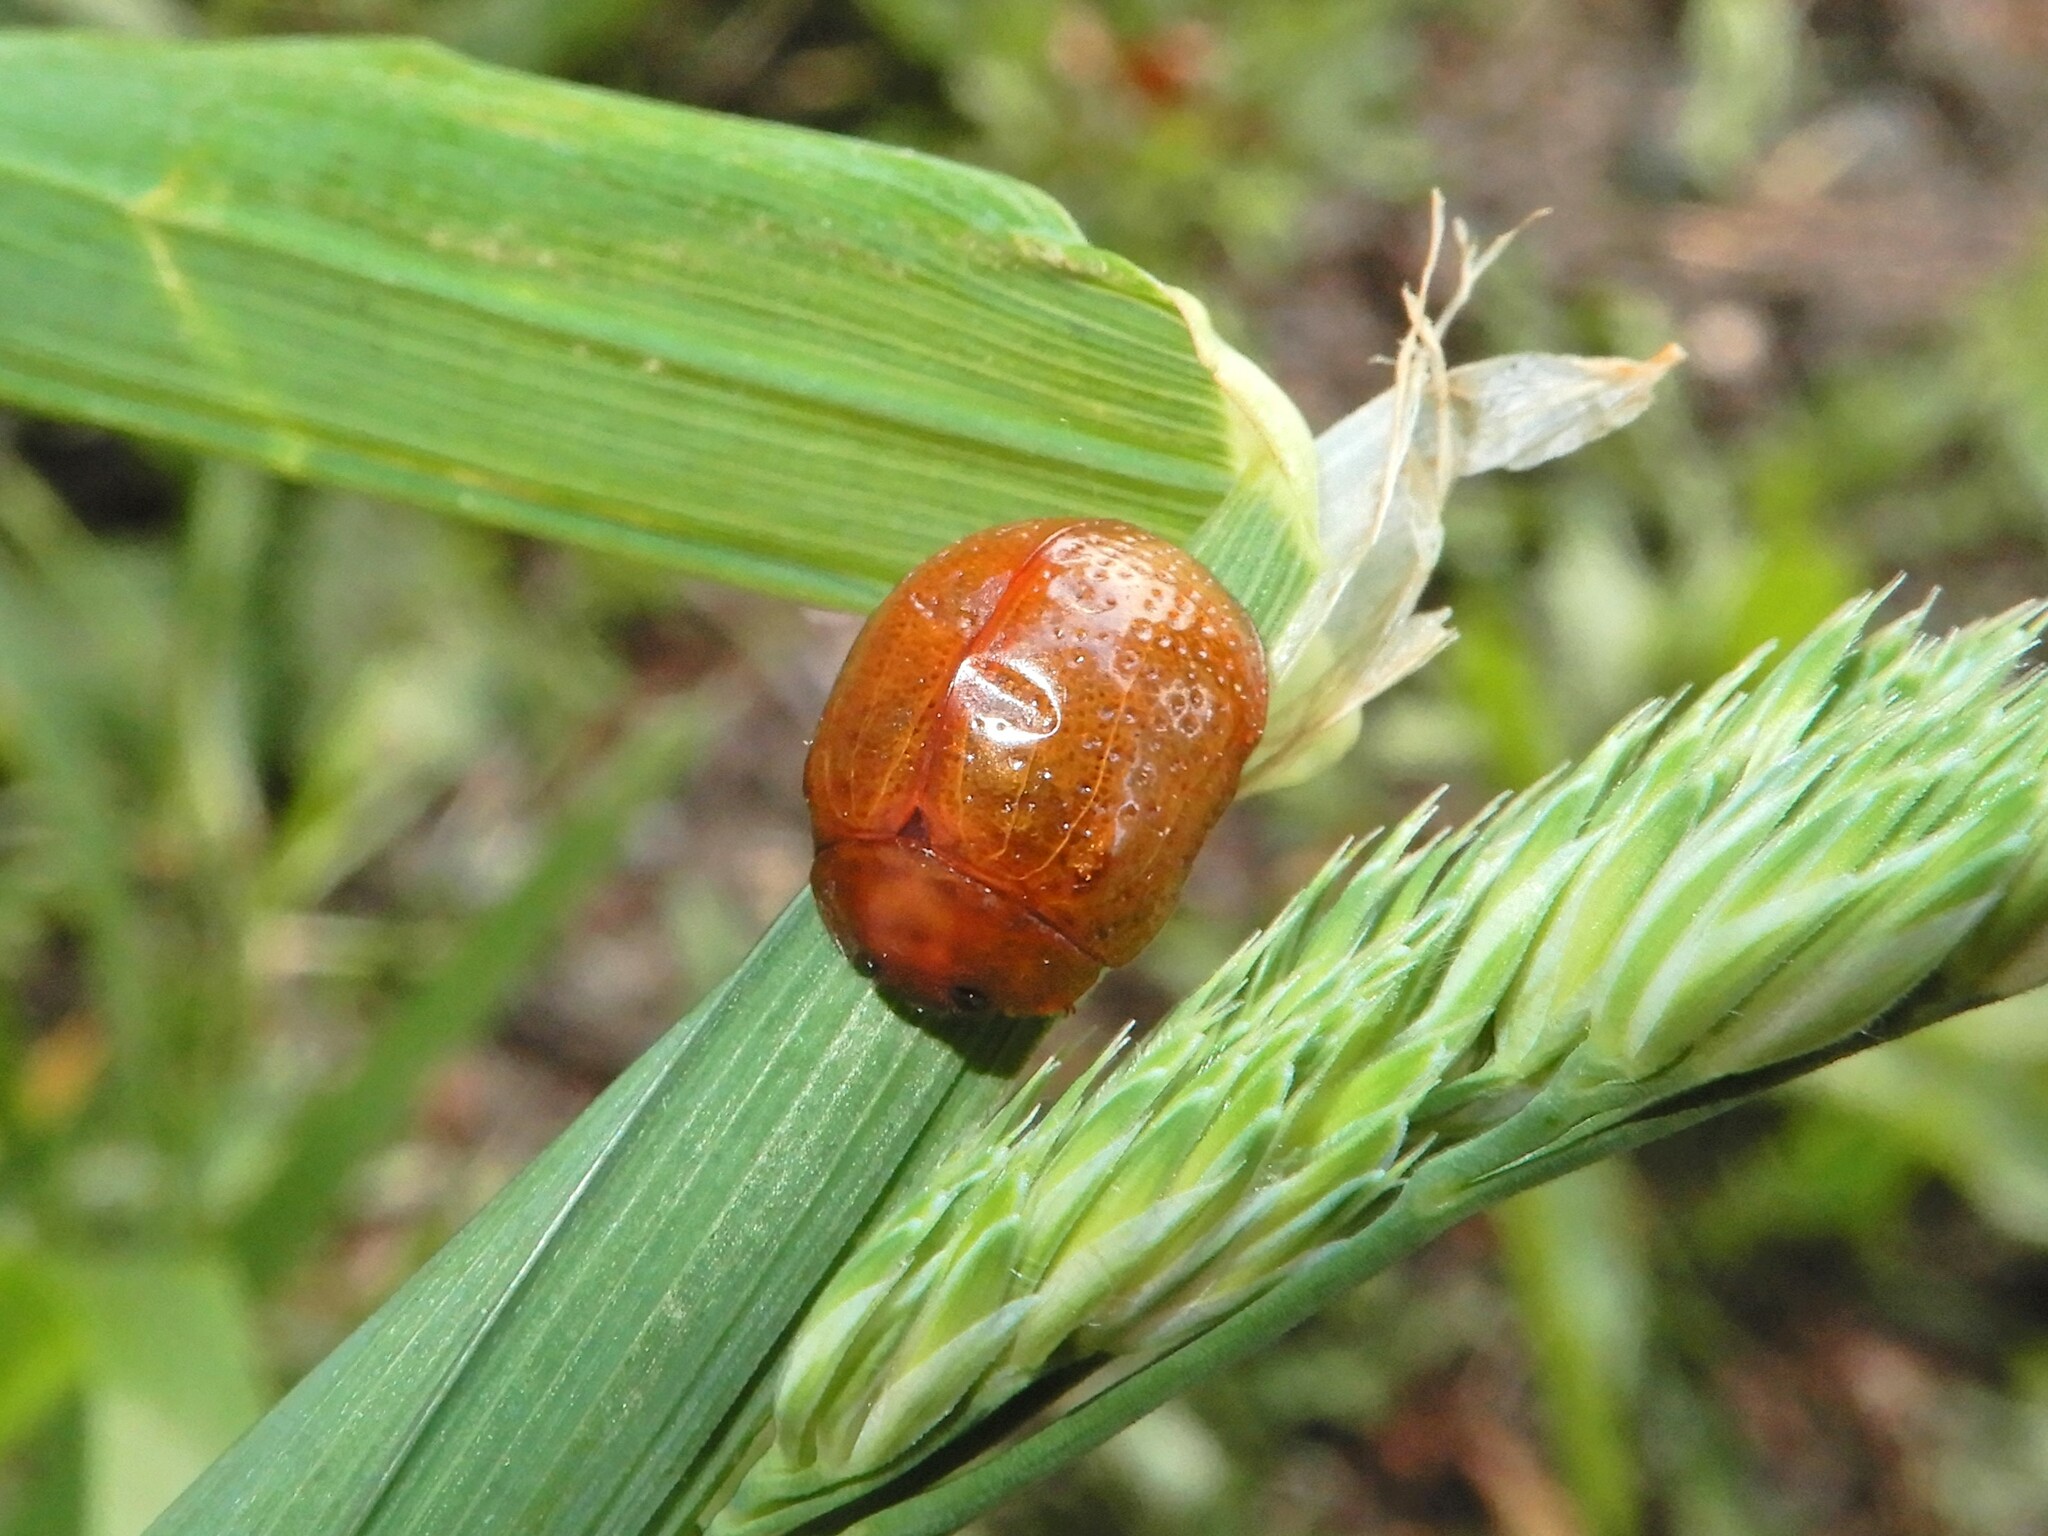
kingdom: Animalia
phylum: Arthropoda
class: Insecta
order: Coleoptera
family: Chrysomelidae
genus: Dicranosterna
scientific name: Dicranosterna
